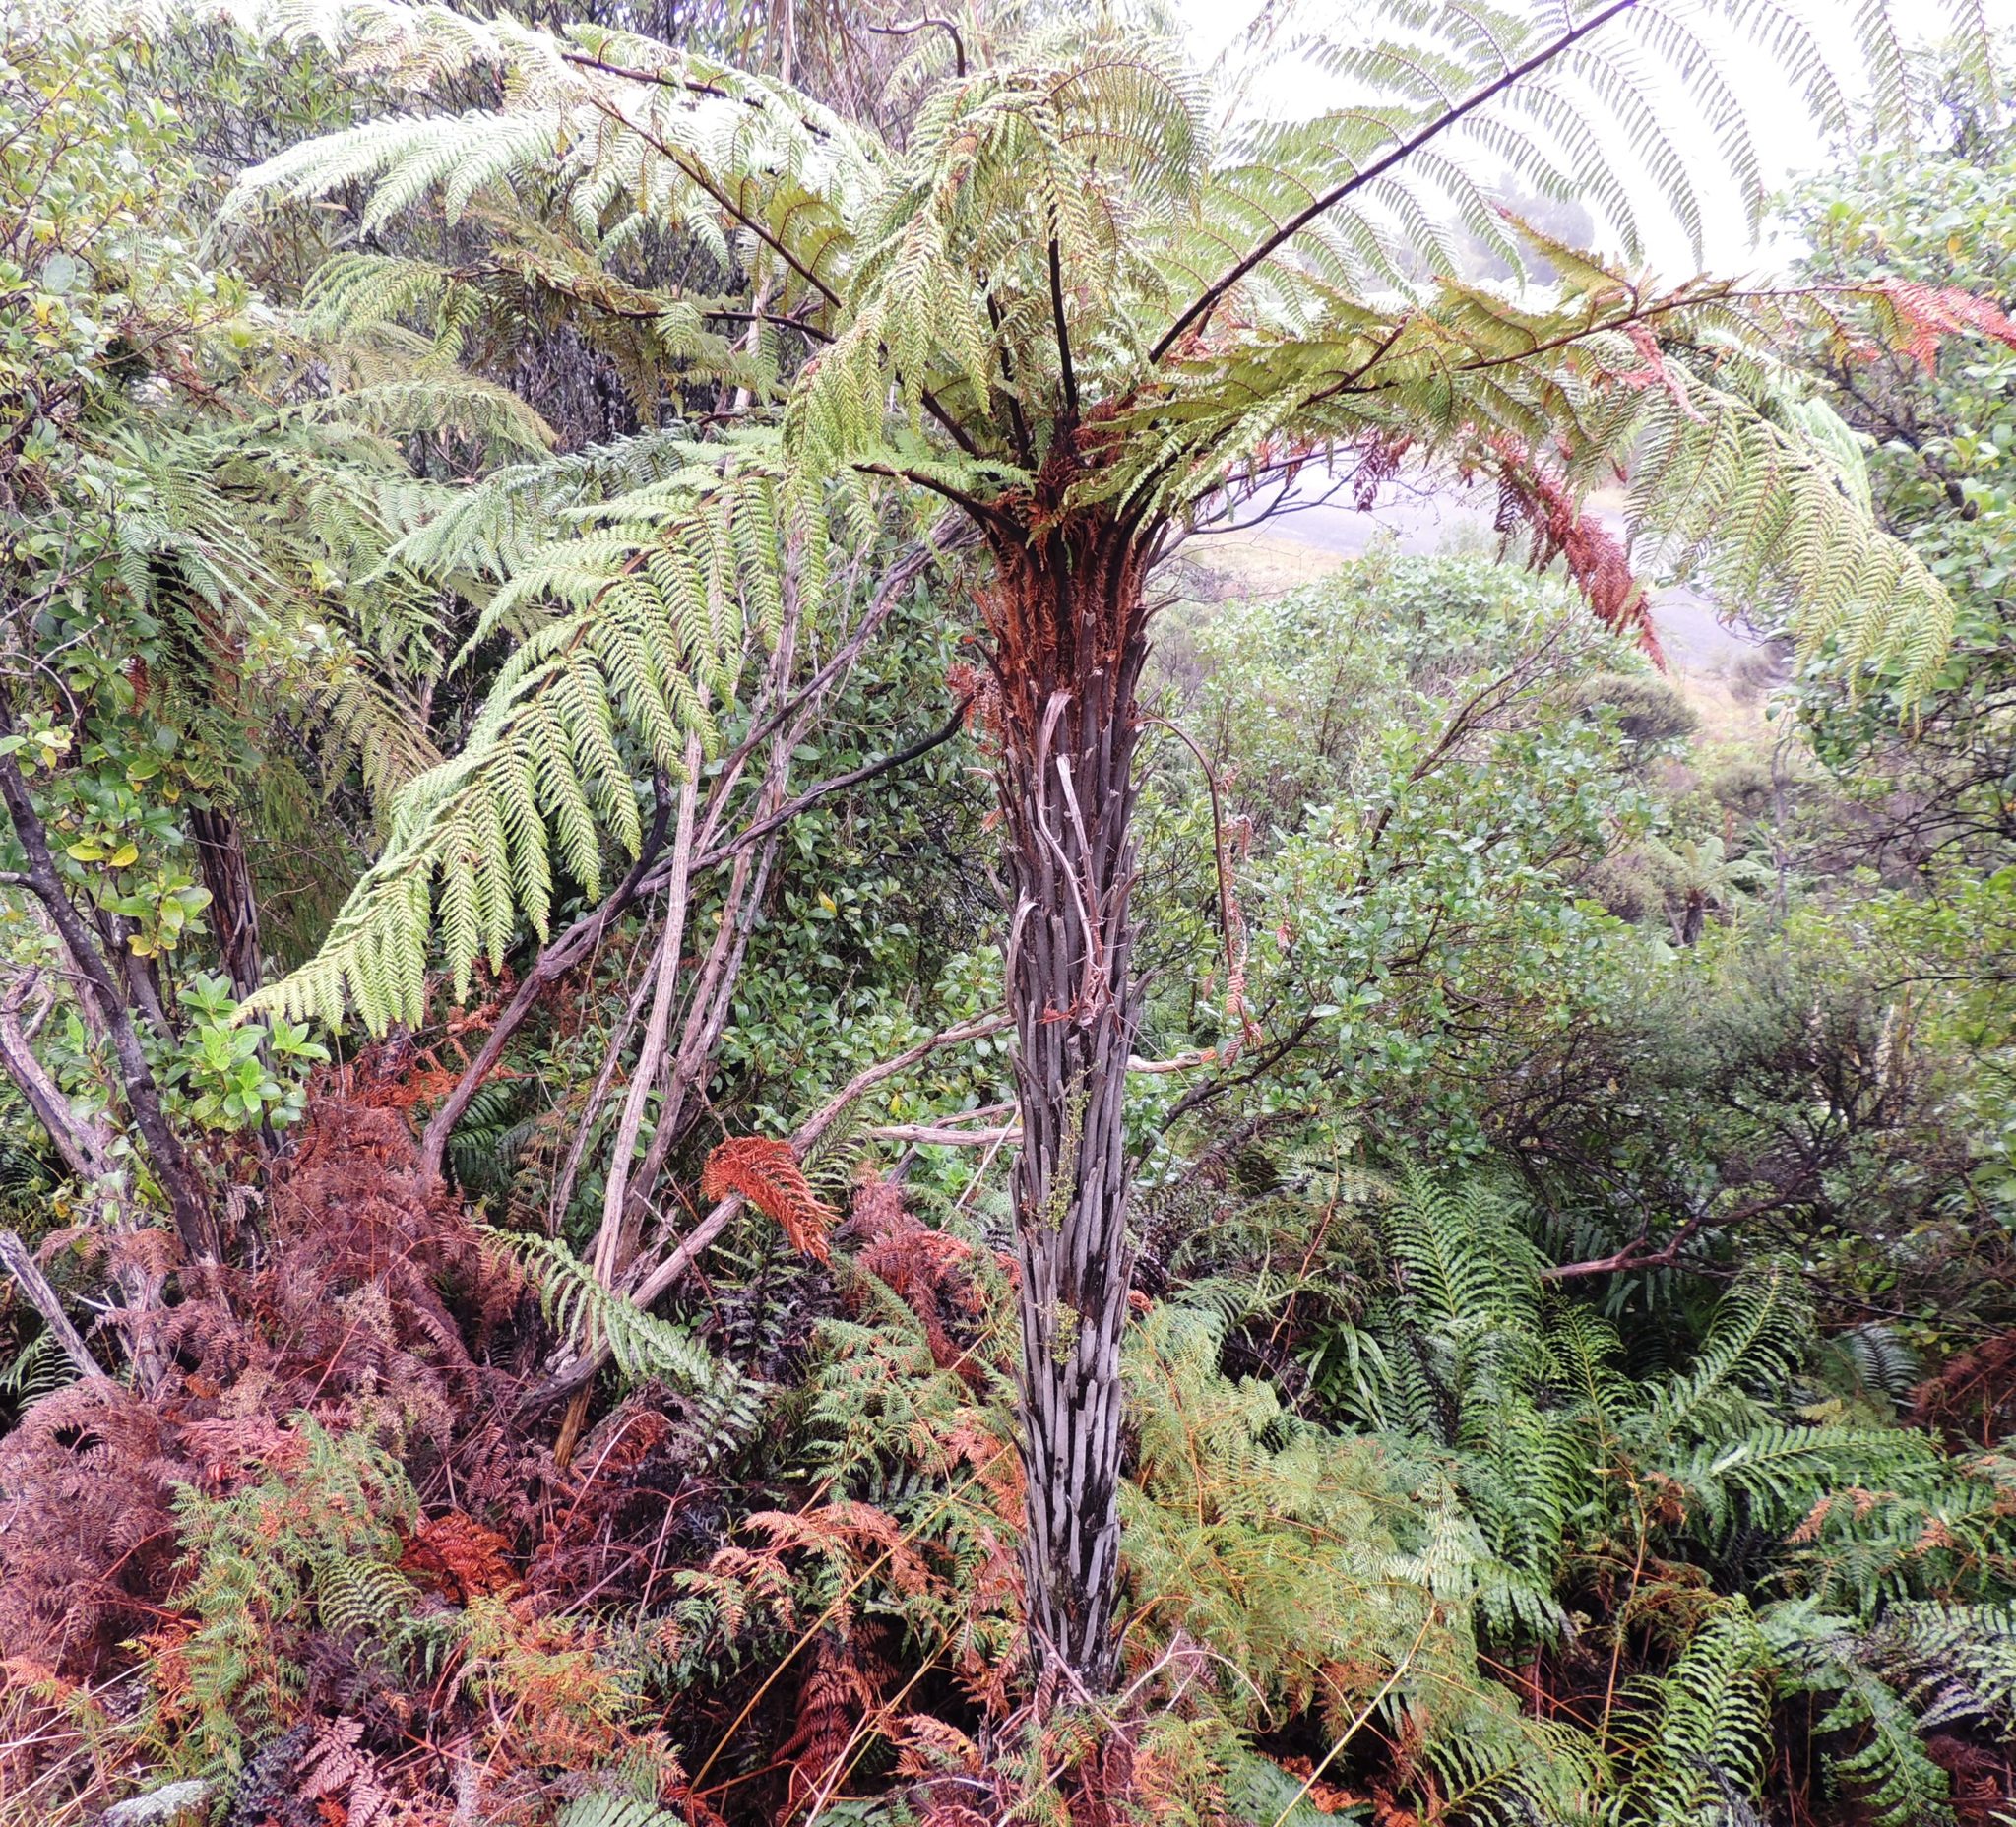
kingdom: Plantae
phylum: Tracheophyta
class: Polypodiopsida
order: Cyatheales
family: Dicksoniaceae
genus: Dicksonia
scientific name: Dicksonia squarrosa
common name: Hard treefern
